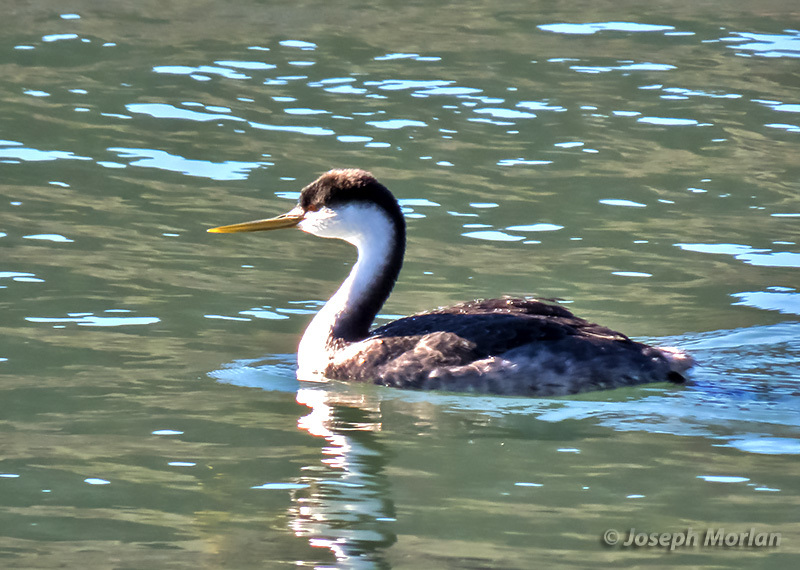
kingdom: Animalia
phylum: Chordata
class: Aves
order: Podicipediformes
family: Podicipedidae
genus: Aechmophorus
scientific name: Aechmophorus occidentalis
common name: Western grebe
